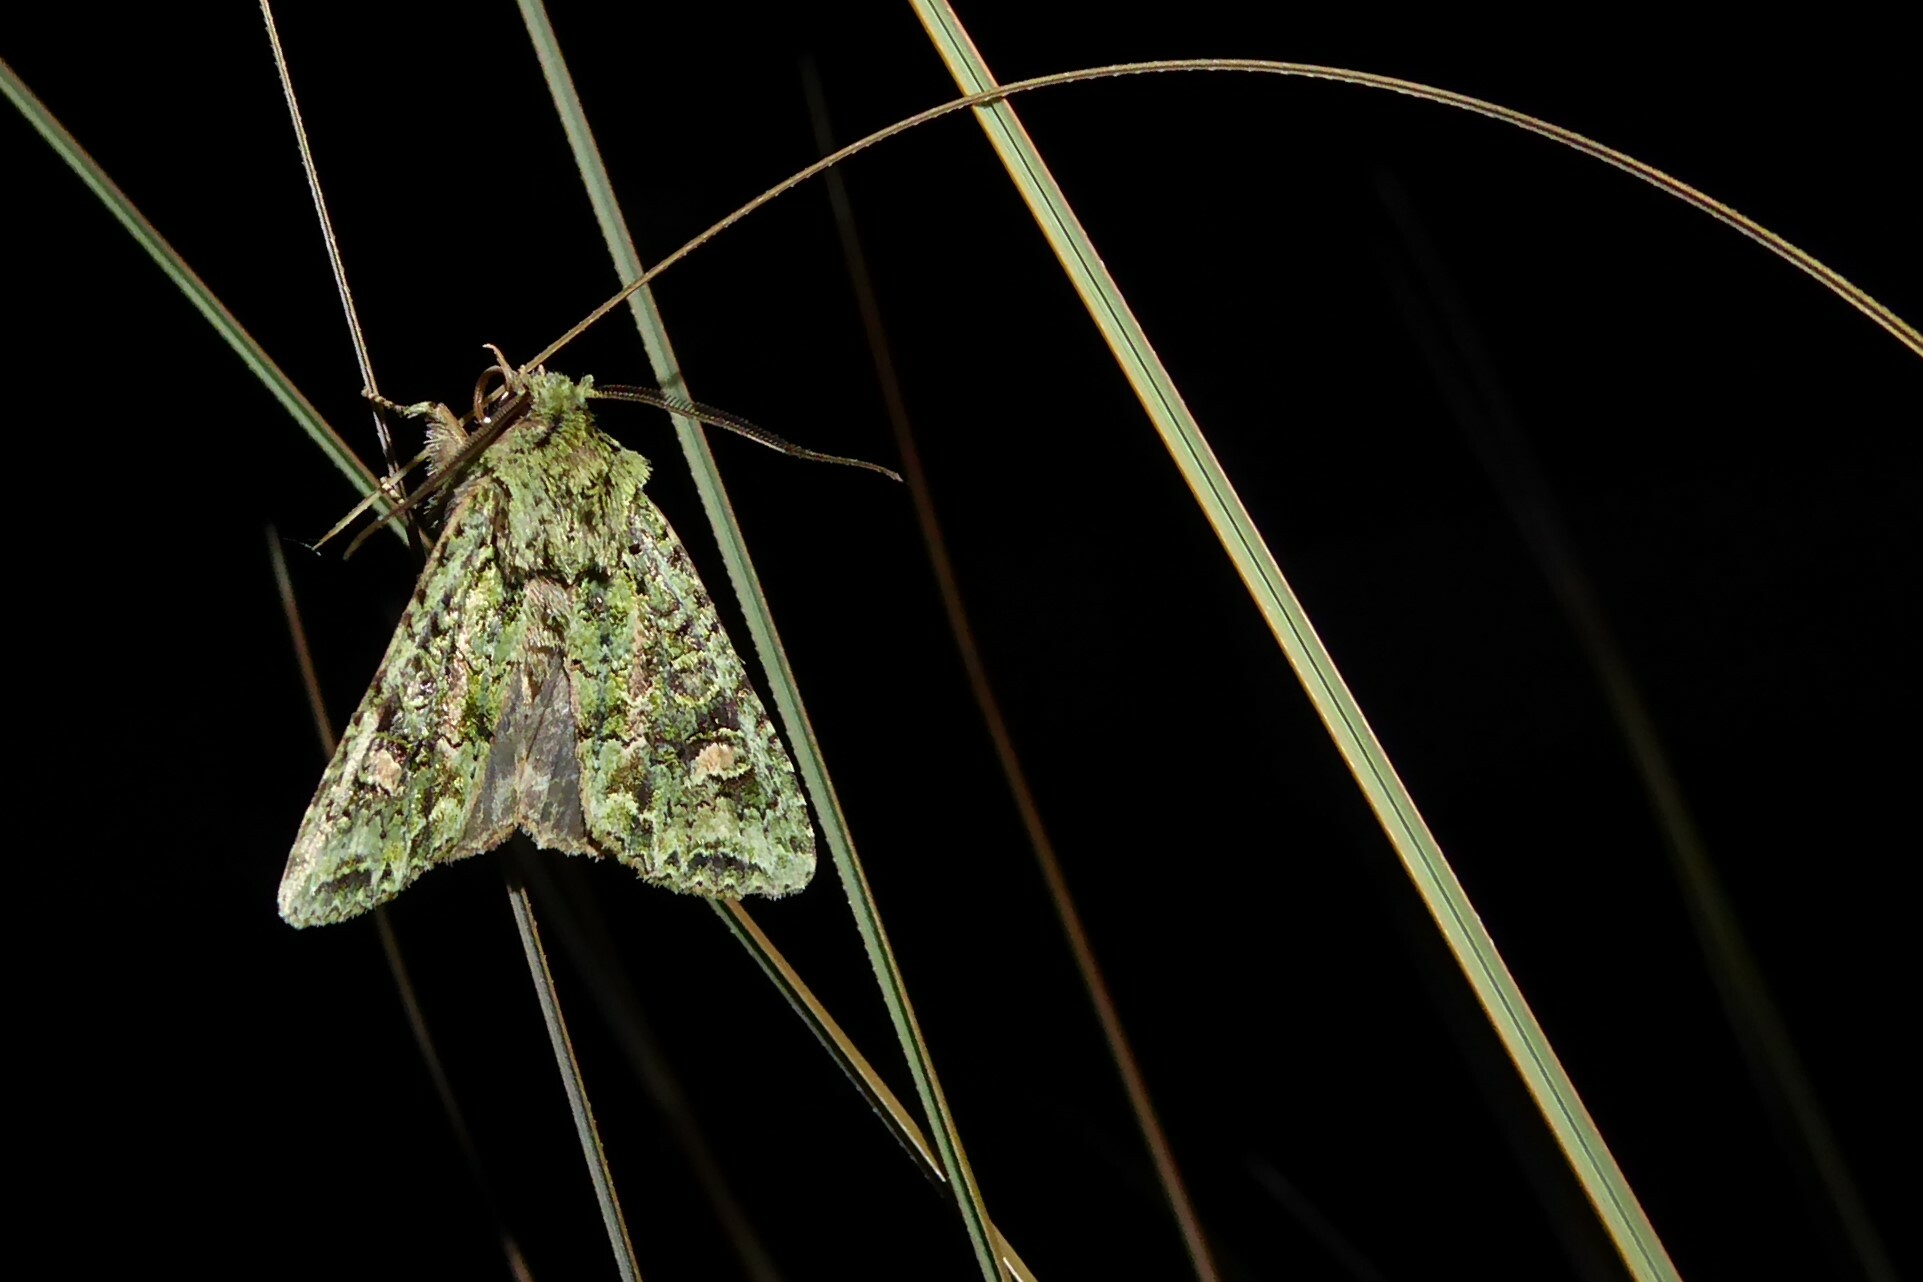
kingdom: Animalia
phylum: Arthropoda
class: Insecta
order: Lepidoptera
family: Noctuidae
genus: Ichneutica
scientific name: Ichneutica
